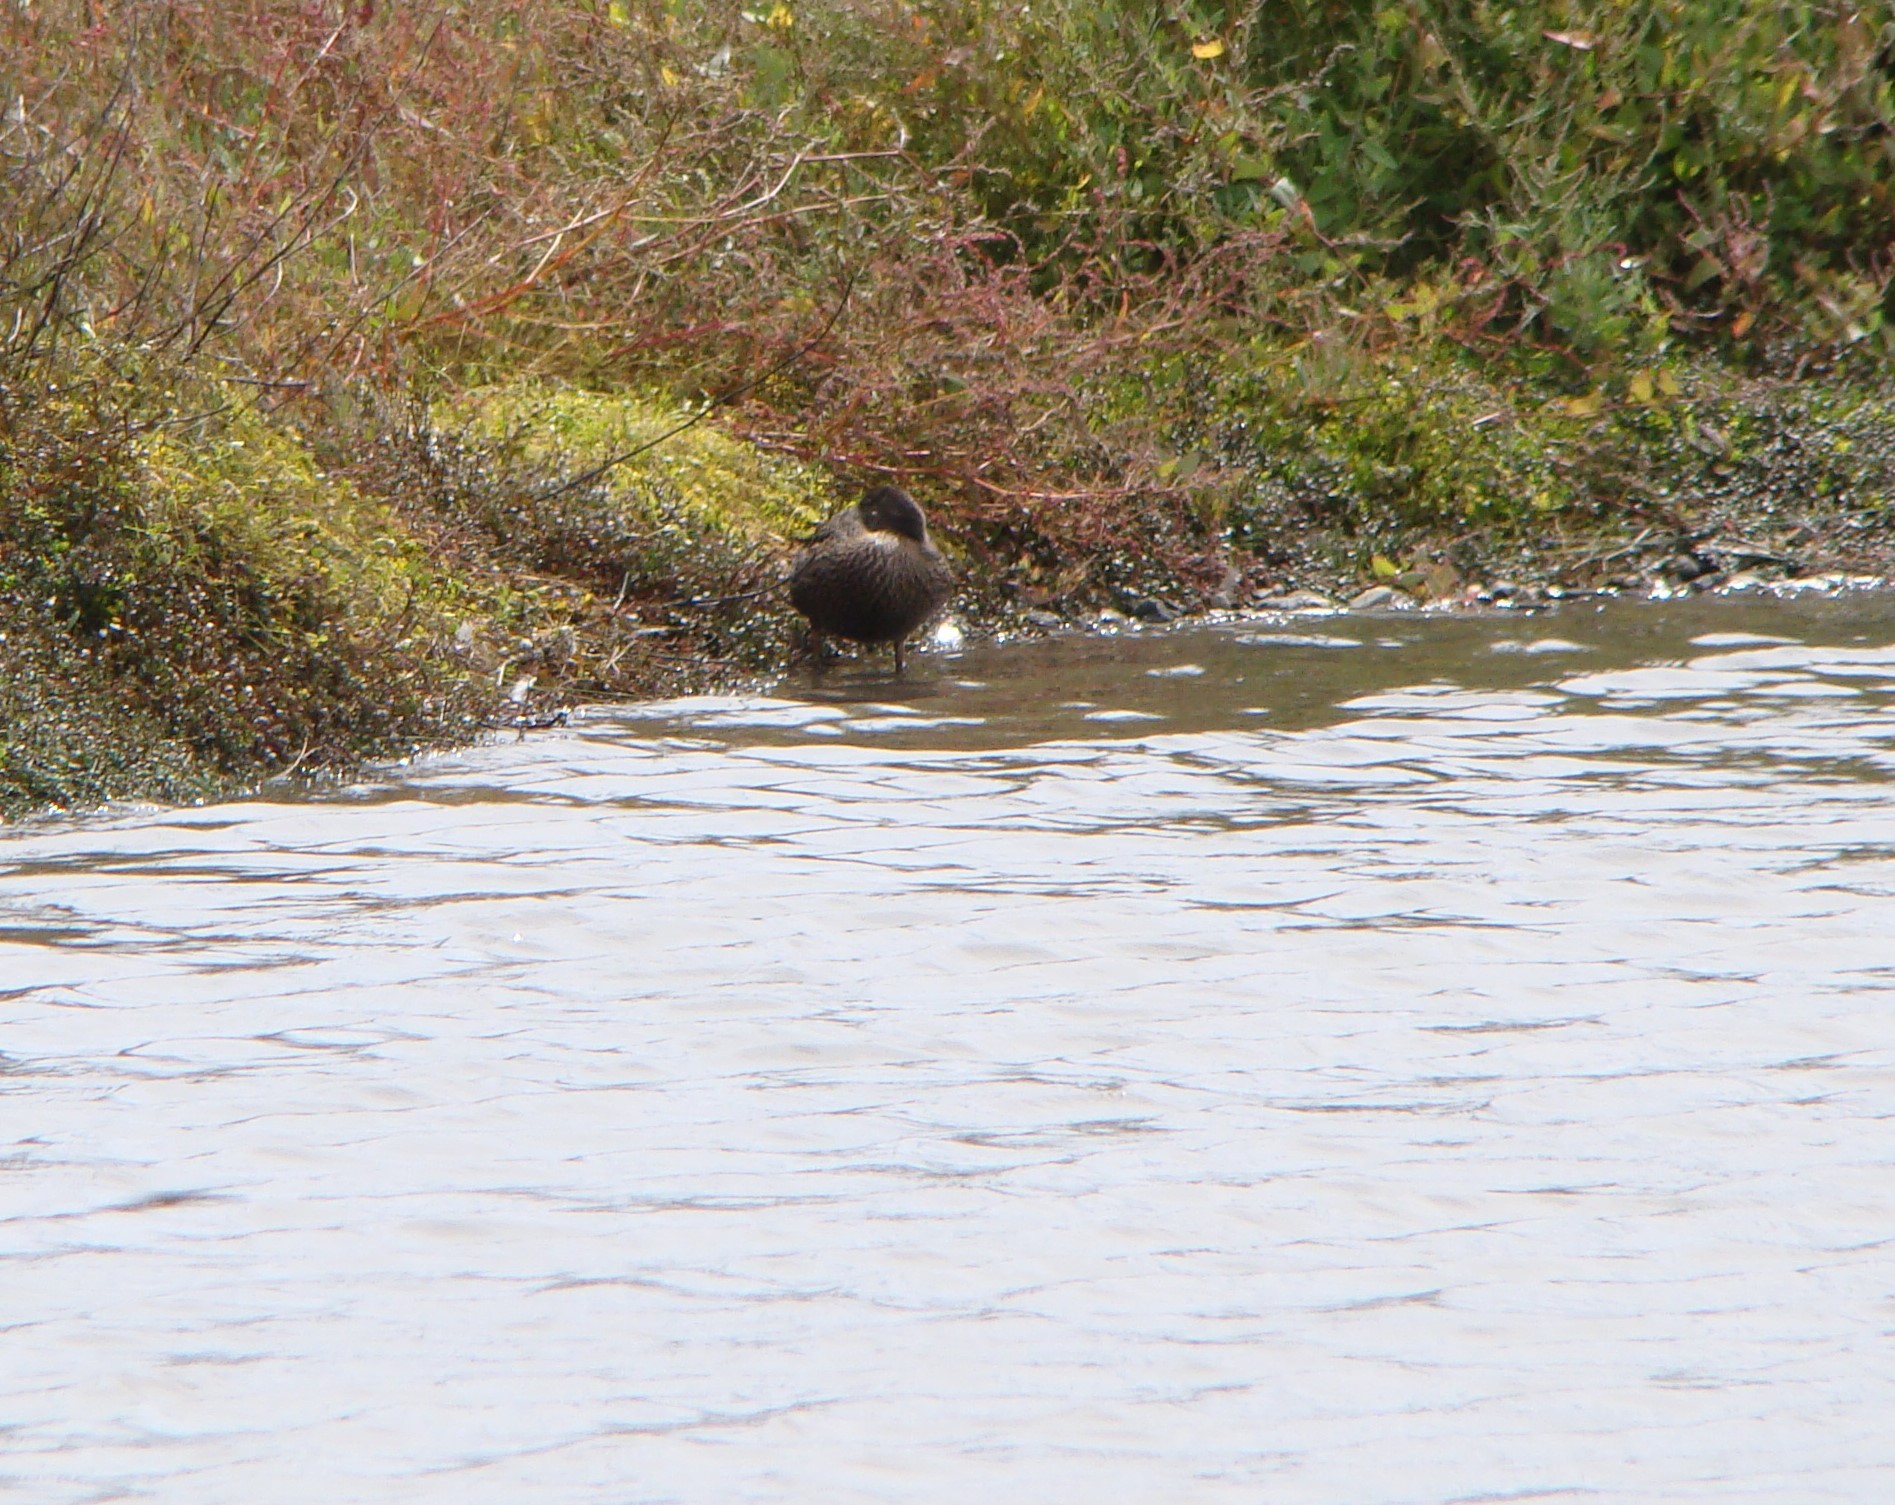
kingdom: Animalia
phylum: Chordata
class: Aves
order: Anseriformes
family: Anatidae
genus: Anas
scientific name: Anas gracilis
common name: Grey teal
